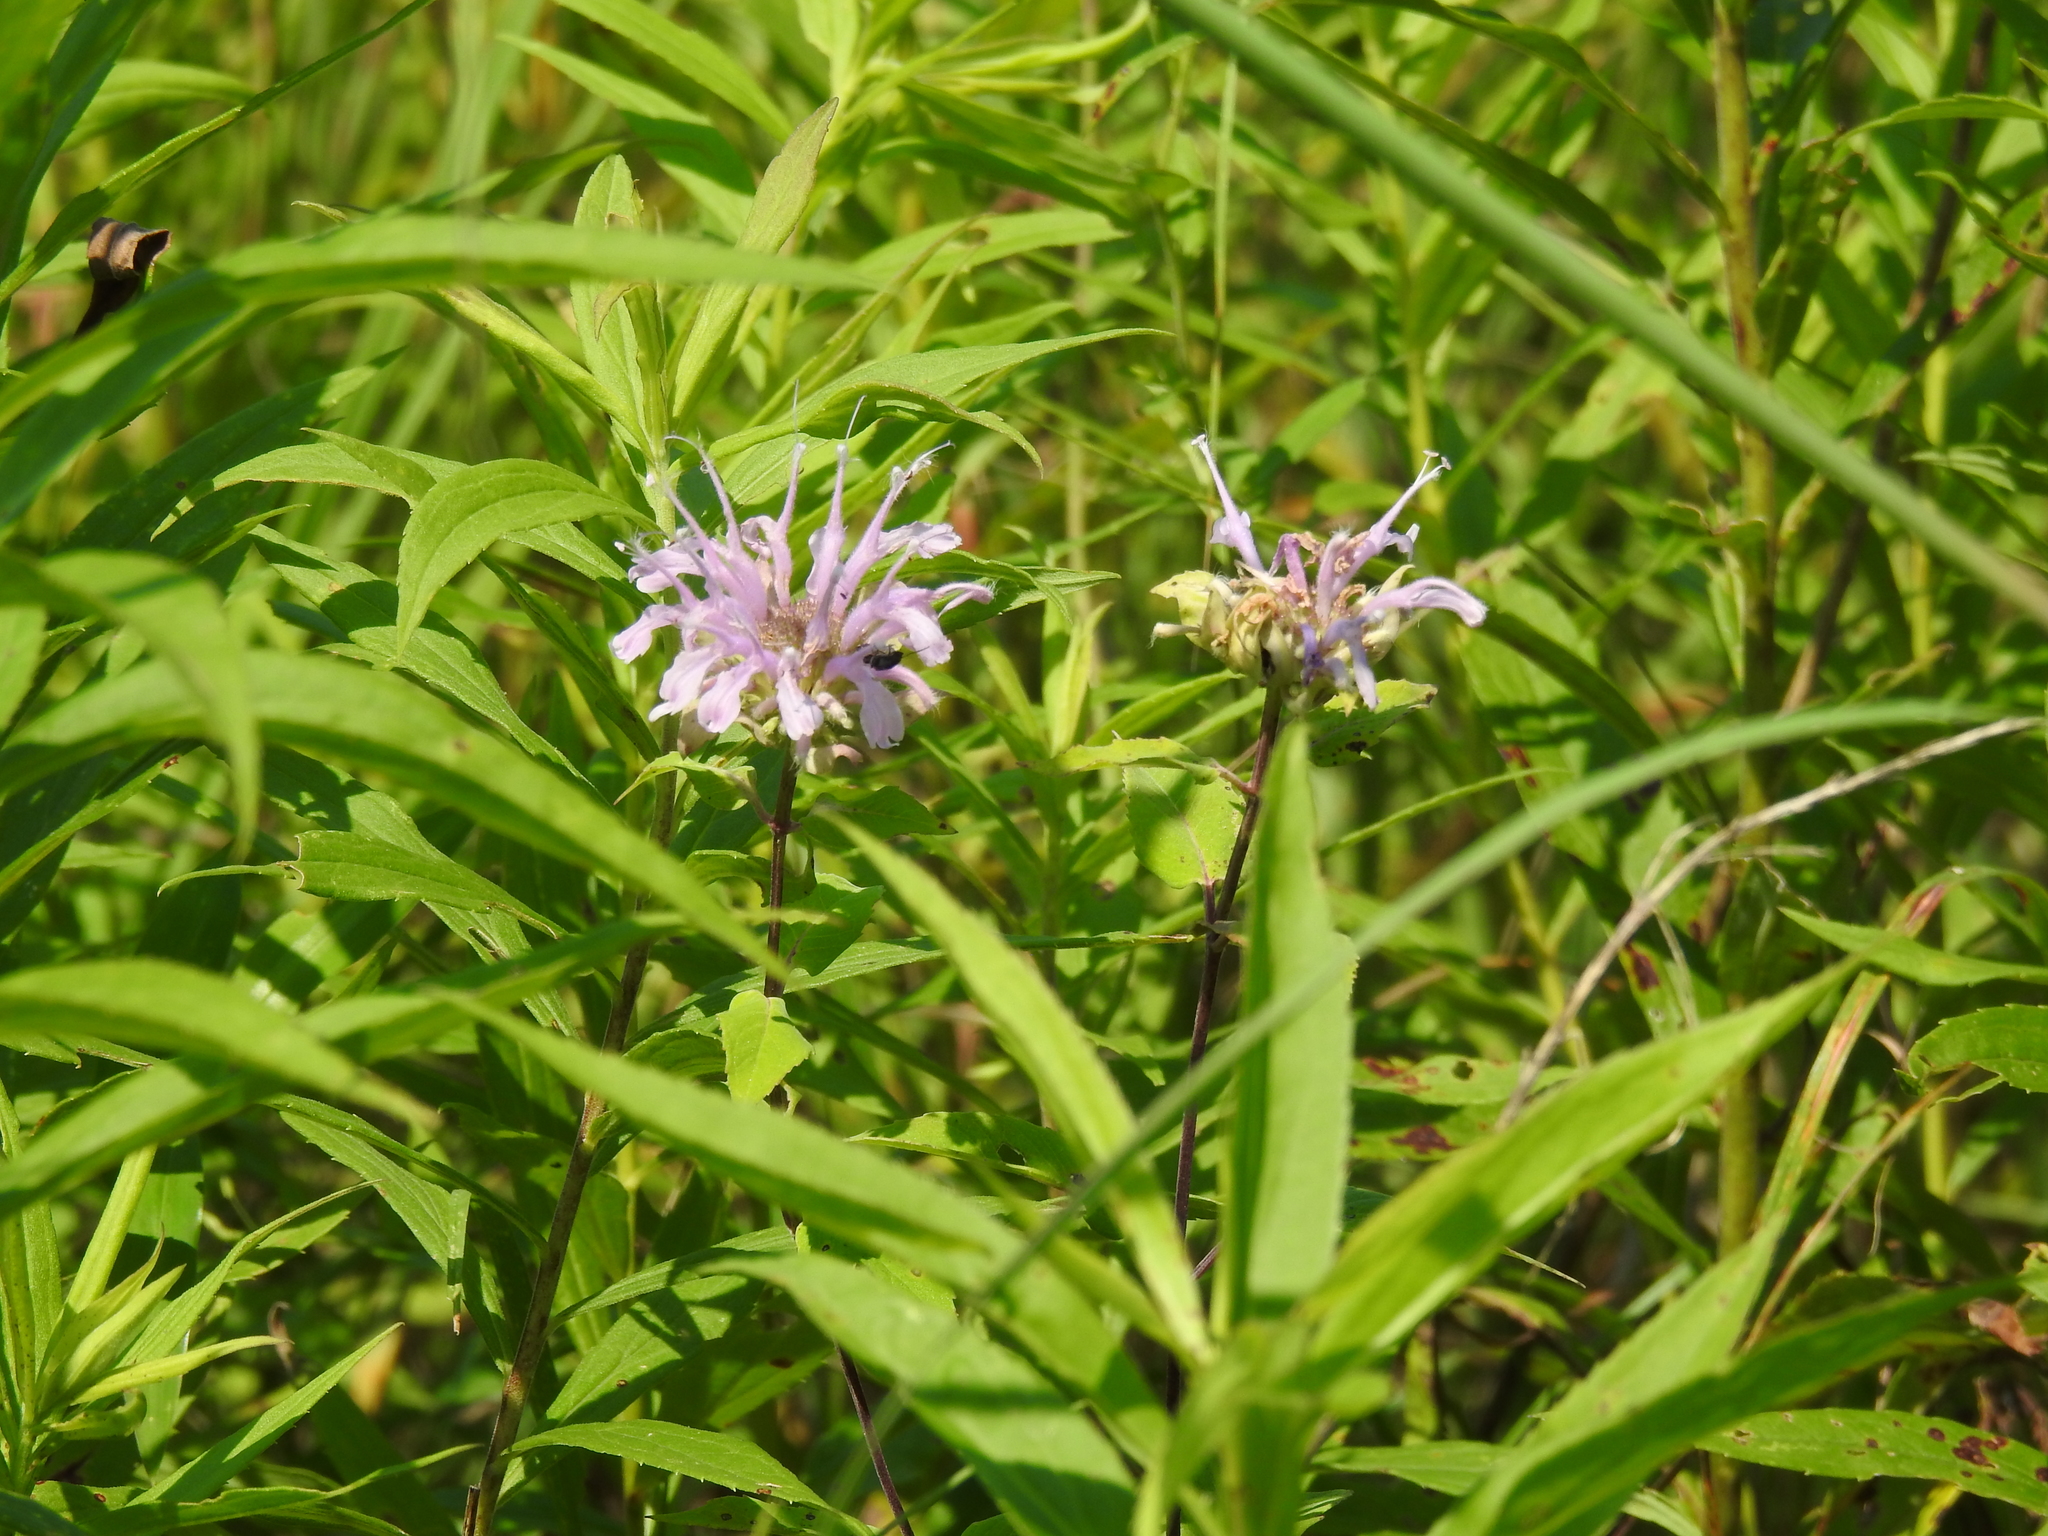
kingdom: Plantae
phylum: Tracheophyta
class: Magnoliopsida
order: Lamiales
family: Lamiaceae
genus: Monarda
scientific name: Monarda fistulosa
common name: Purple beebalm
